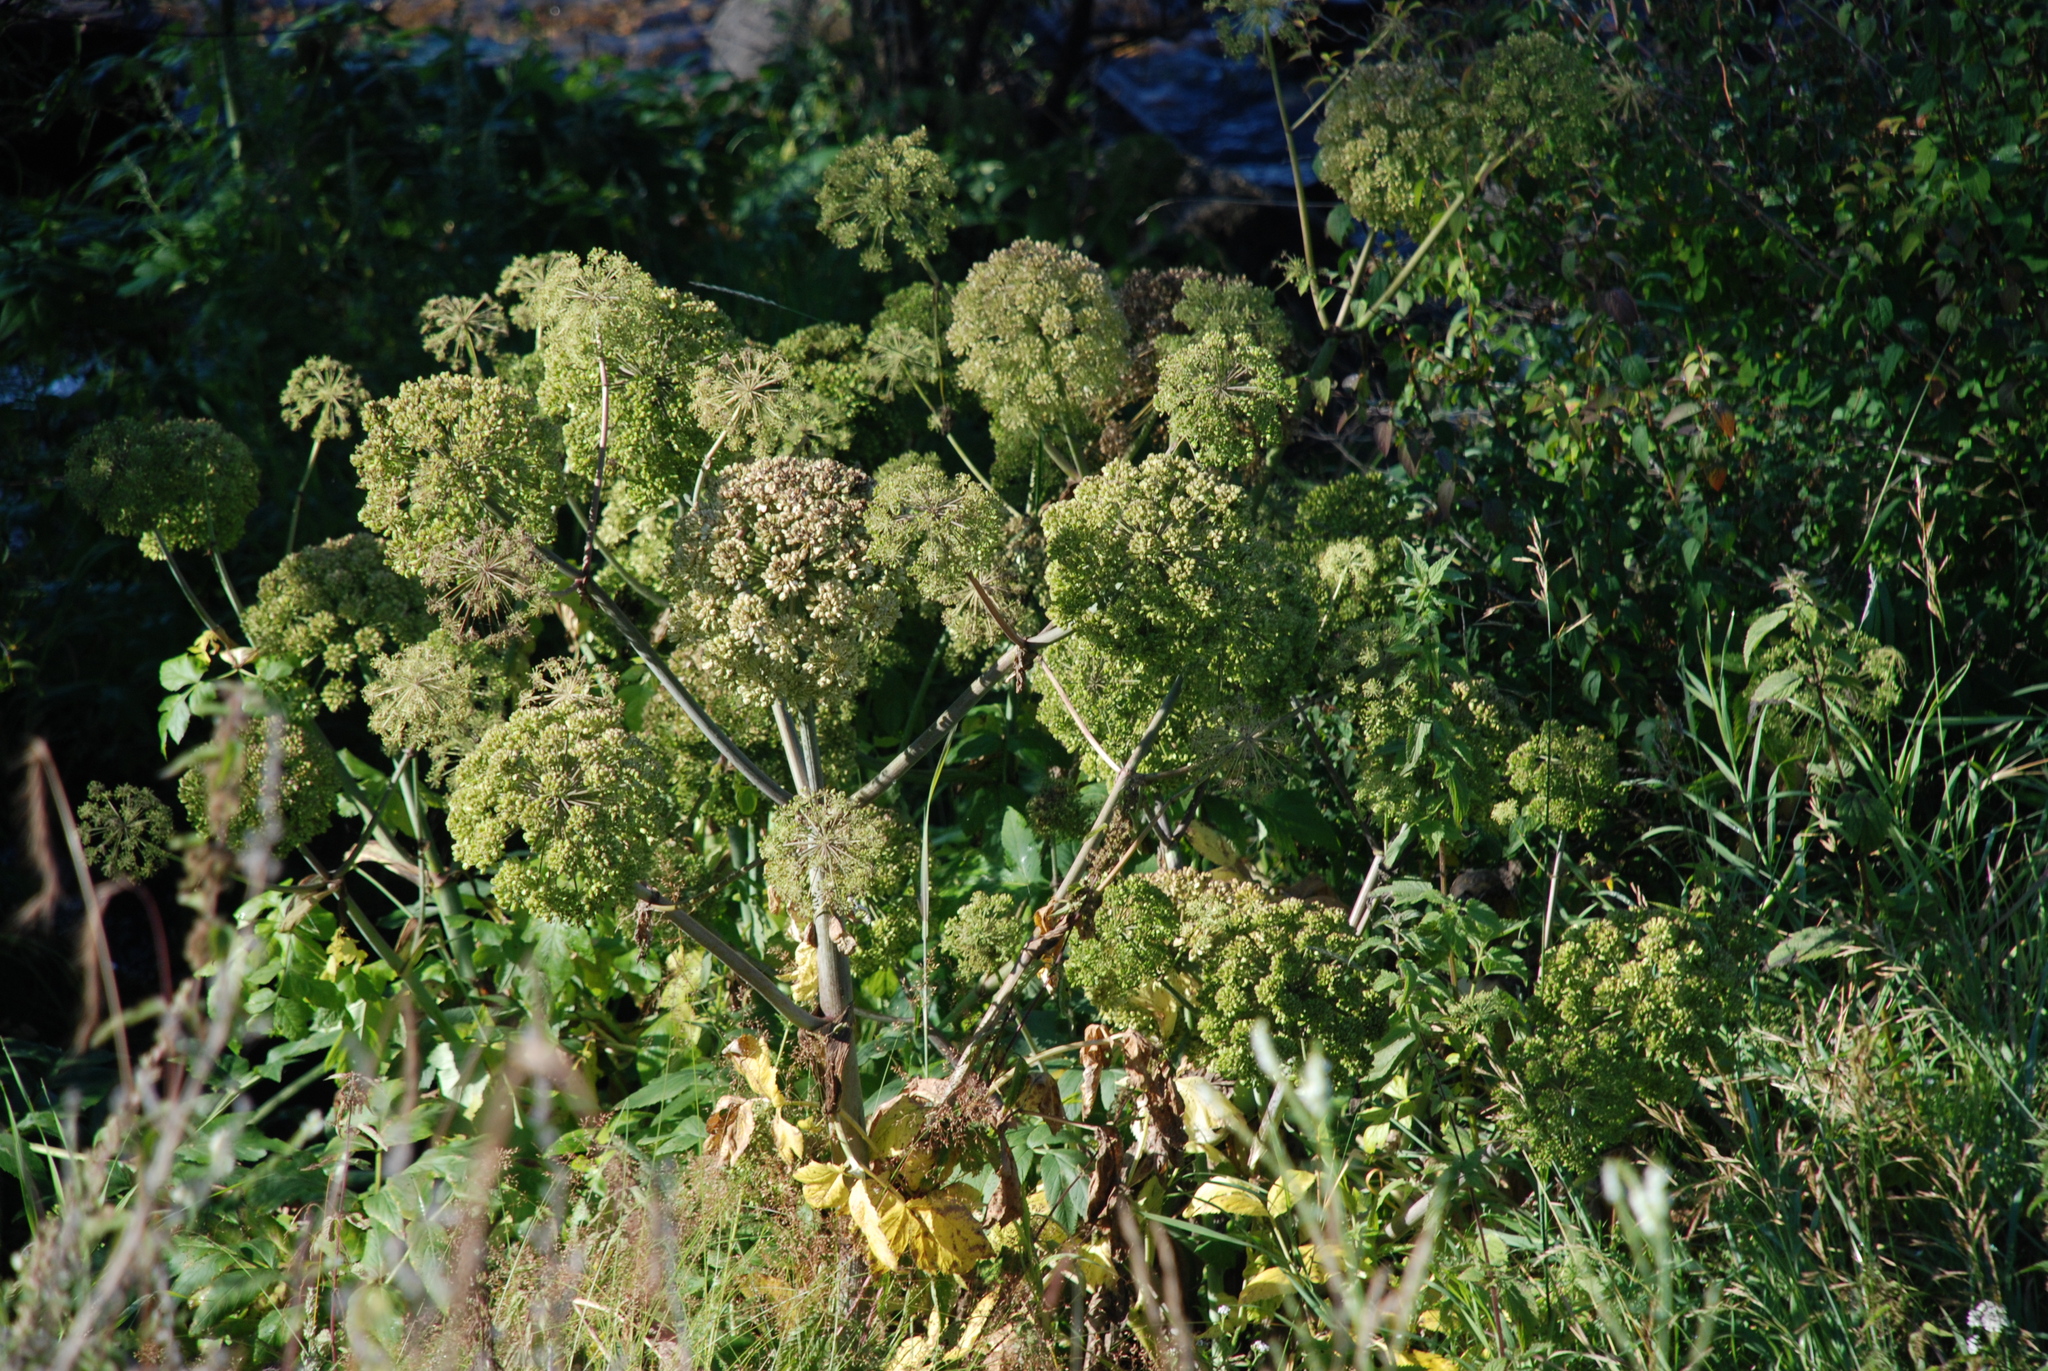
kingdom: Plantae
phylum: Tracheophyta
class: Magnoliopsida
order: Apiales
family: Apiaceae
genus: Angelica
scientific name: Angelica decurrens
